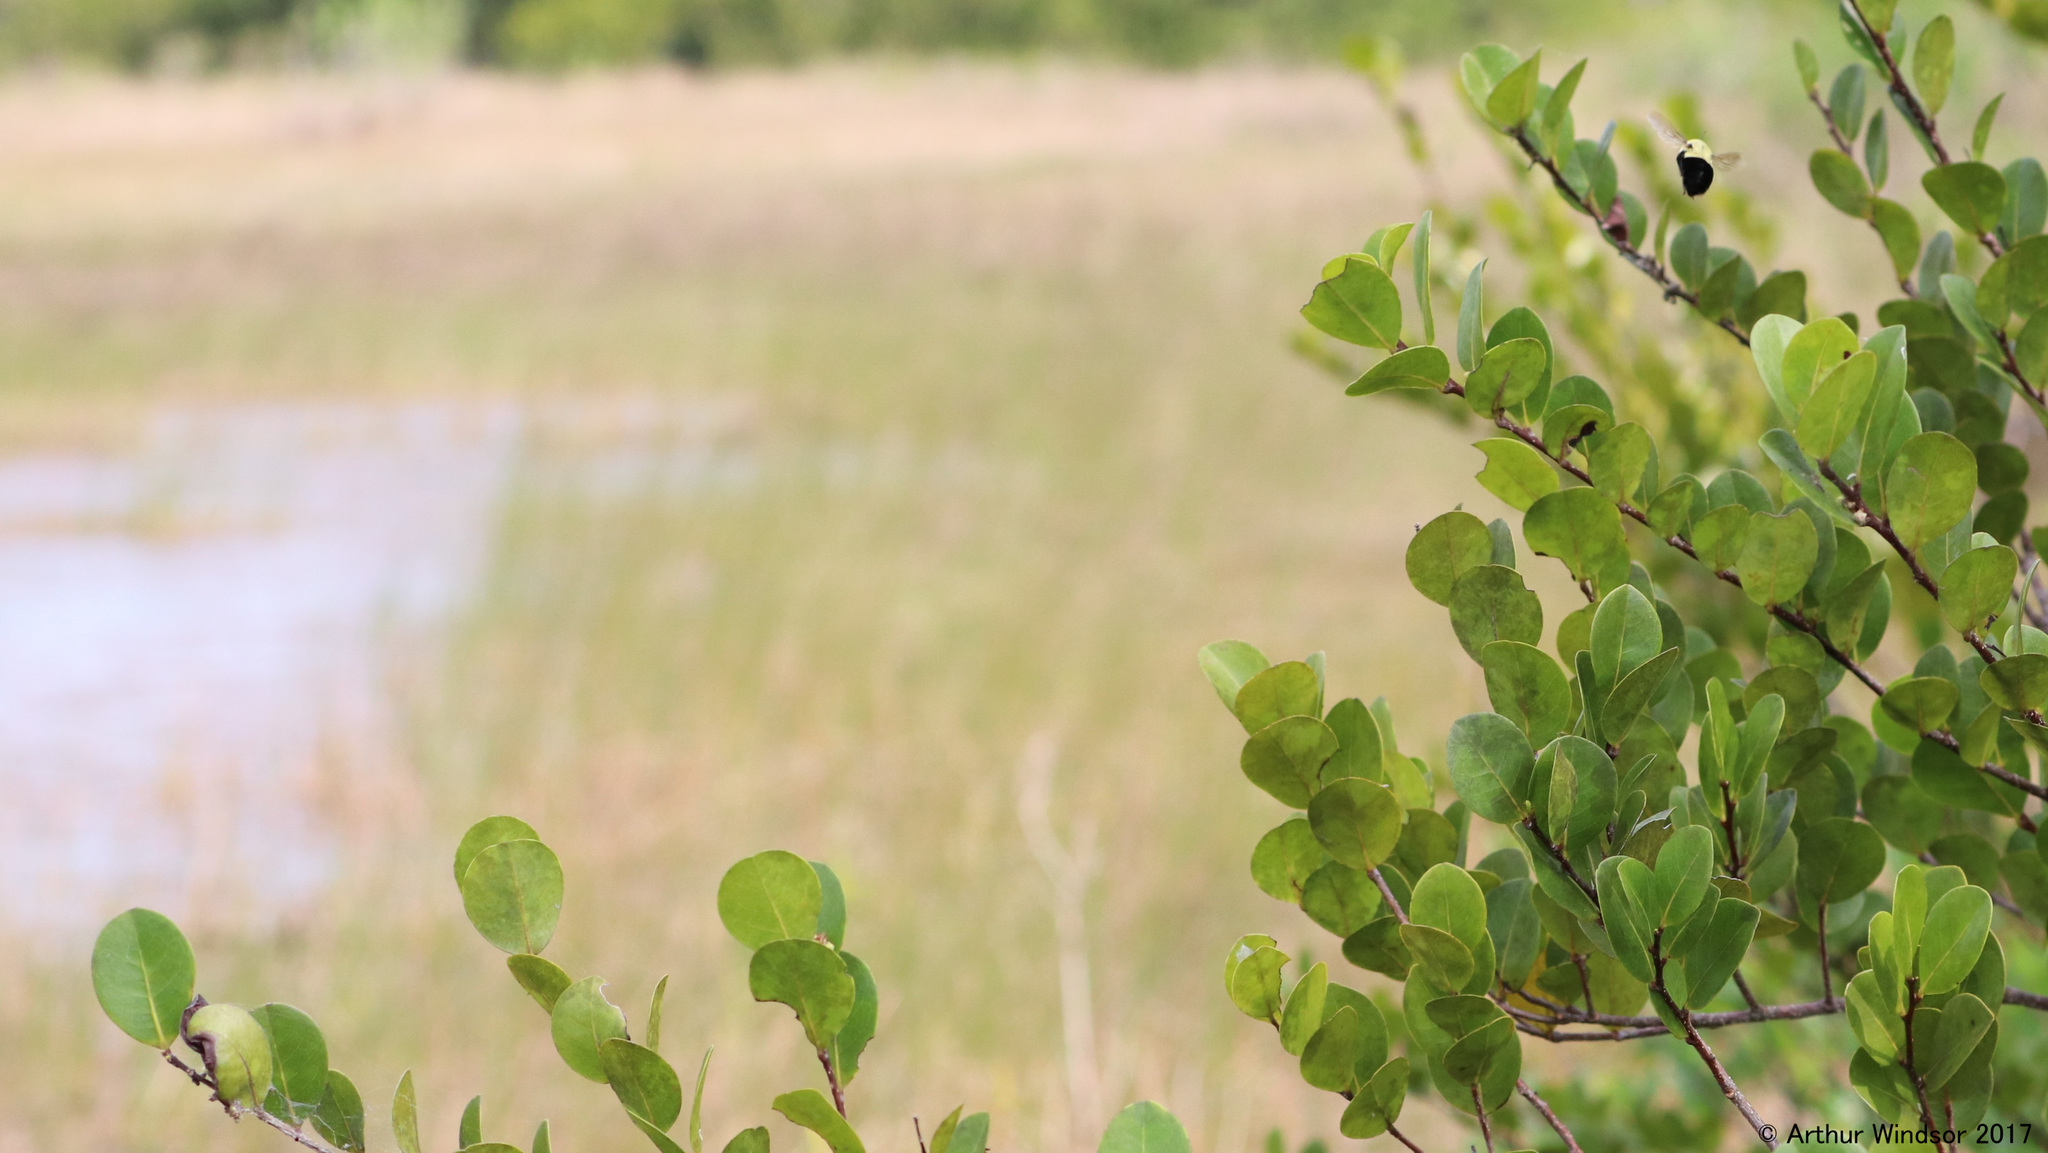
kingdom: Animalia
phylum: Arthropoda
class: Insecta
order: Hymenoptera
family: Apidae
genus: Bombus
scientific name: Bombus impatiens
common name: Common eastern bumble bee
